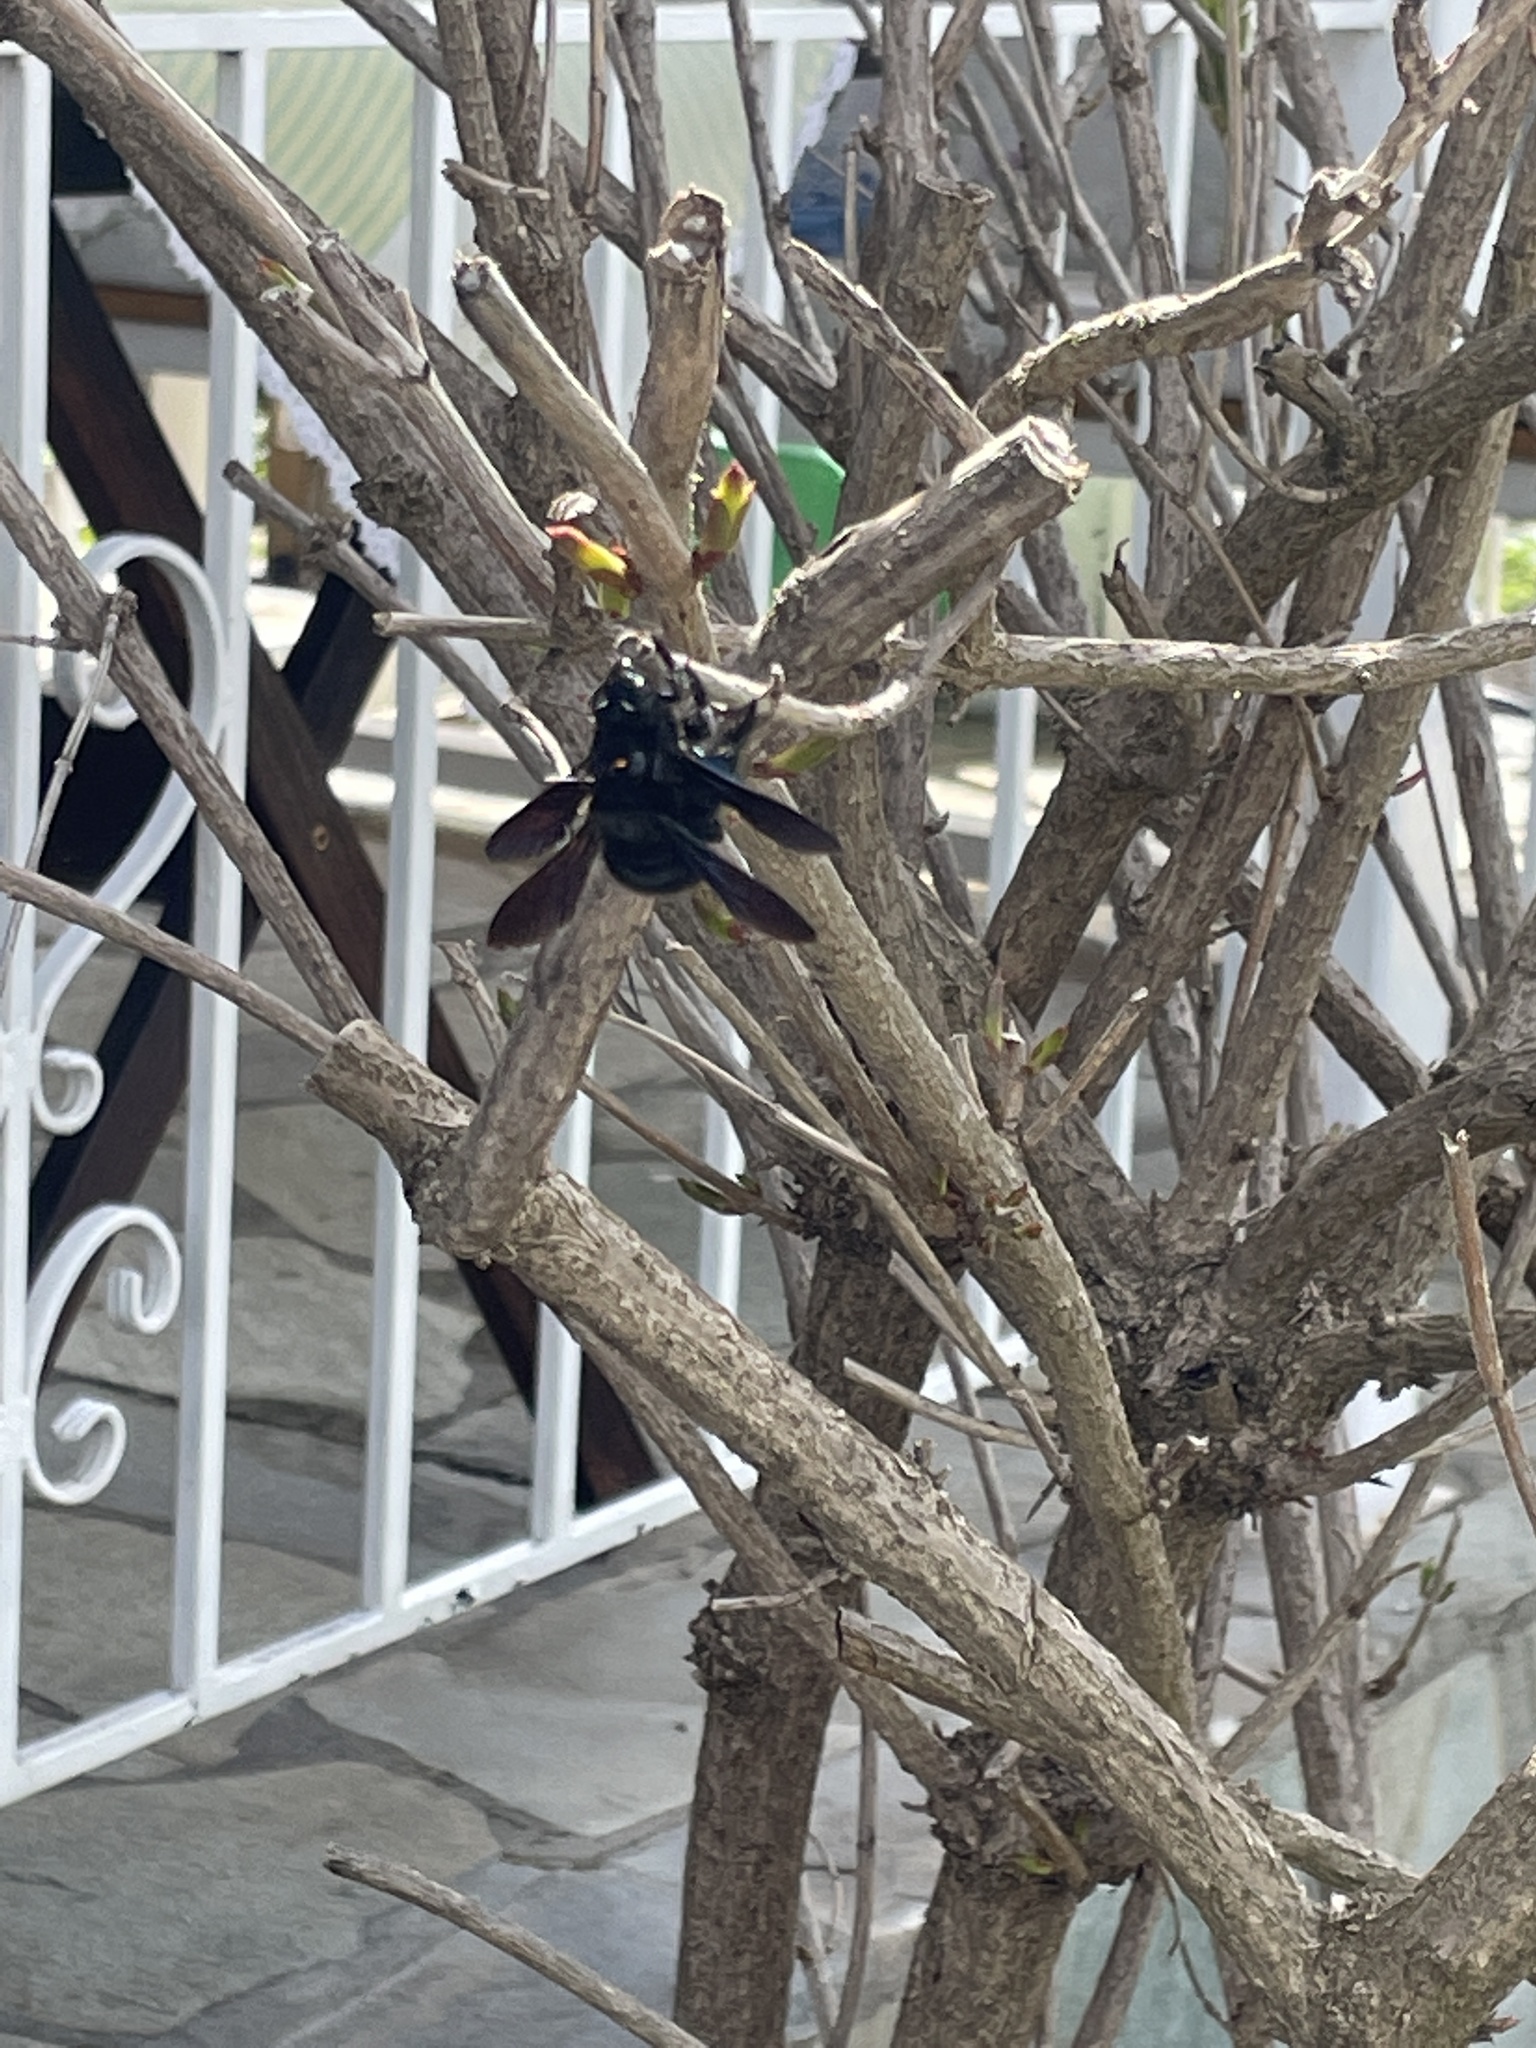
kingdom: Animalia
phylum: Arthropoda
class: Insecta
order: Hymenoptera
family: Apidae
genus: Xylocopa
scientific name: Xylocopa violacea
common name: Violet carpenter bee
